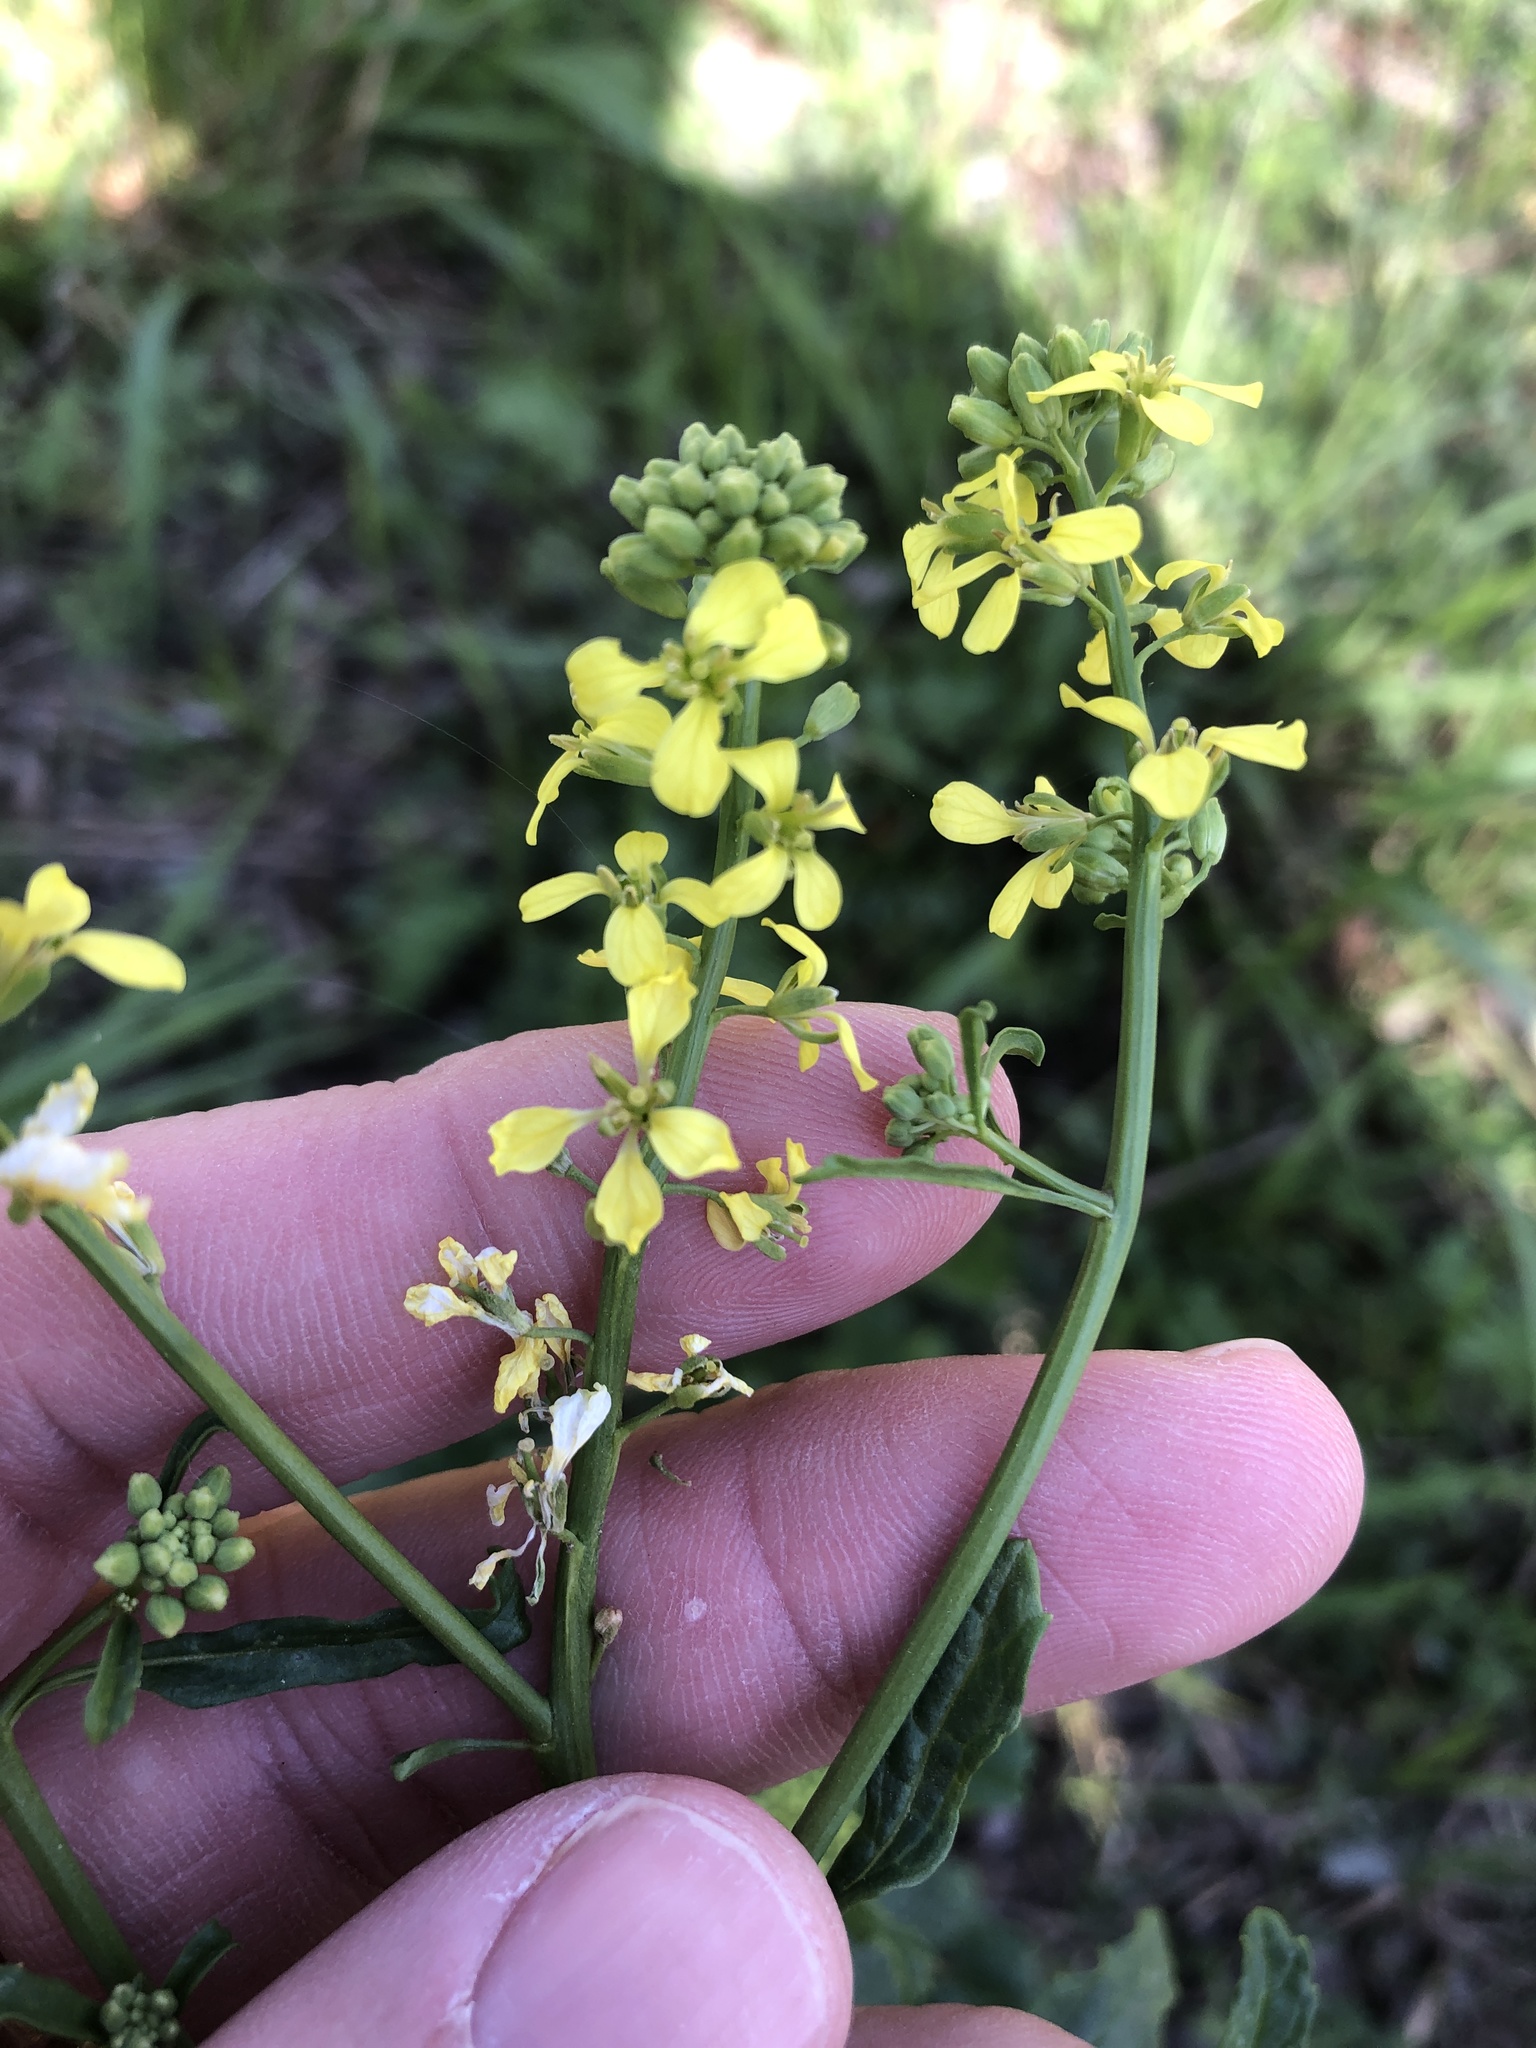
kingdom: Plantae
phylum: Tracheophyta
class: Magnoliopsida
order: Brassicales
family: Brassicaceae
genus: Rapistrum
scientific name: Rapistrum rugosum
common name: Annual bastardcabbage
